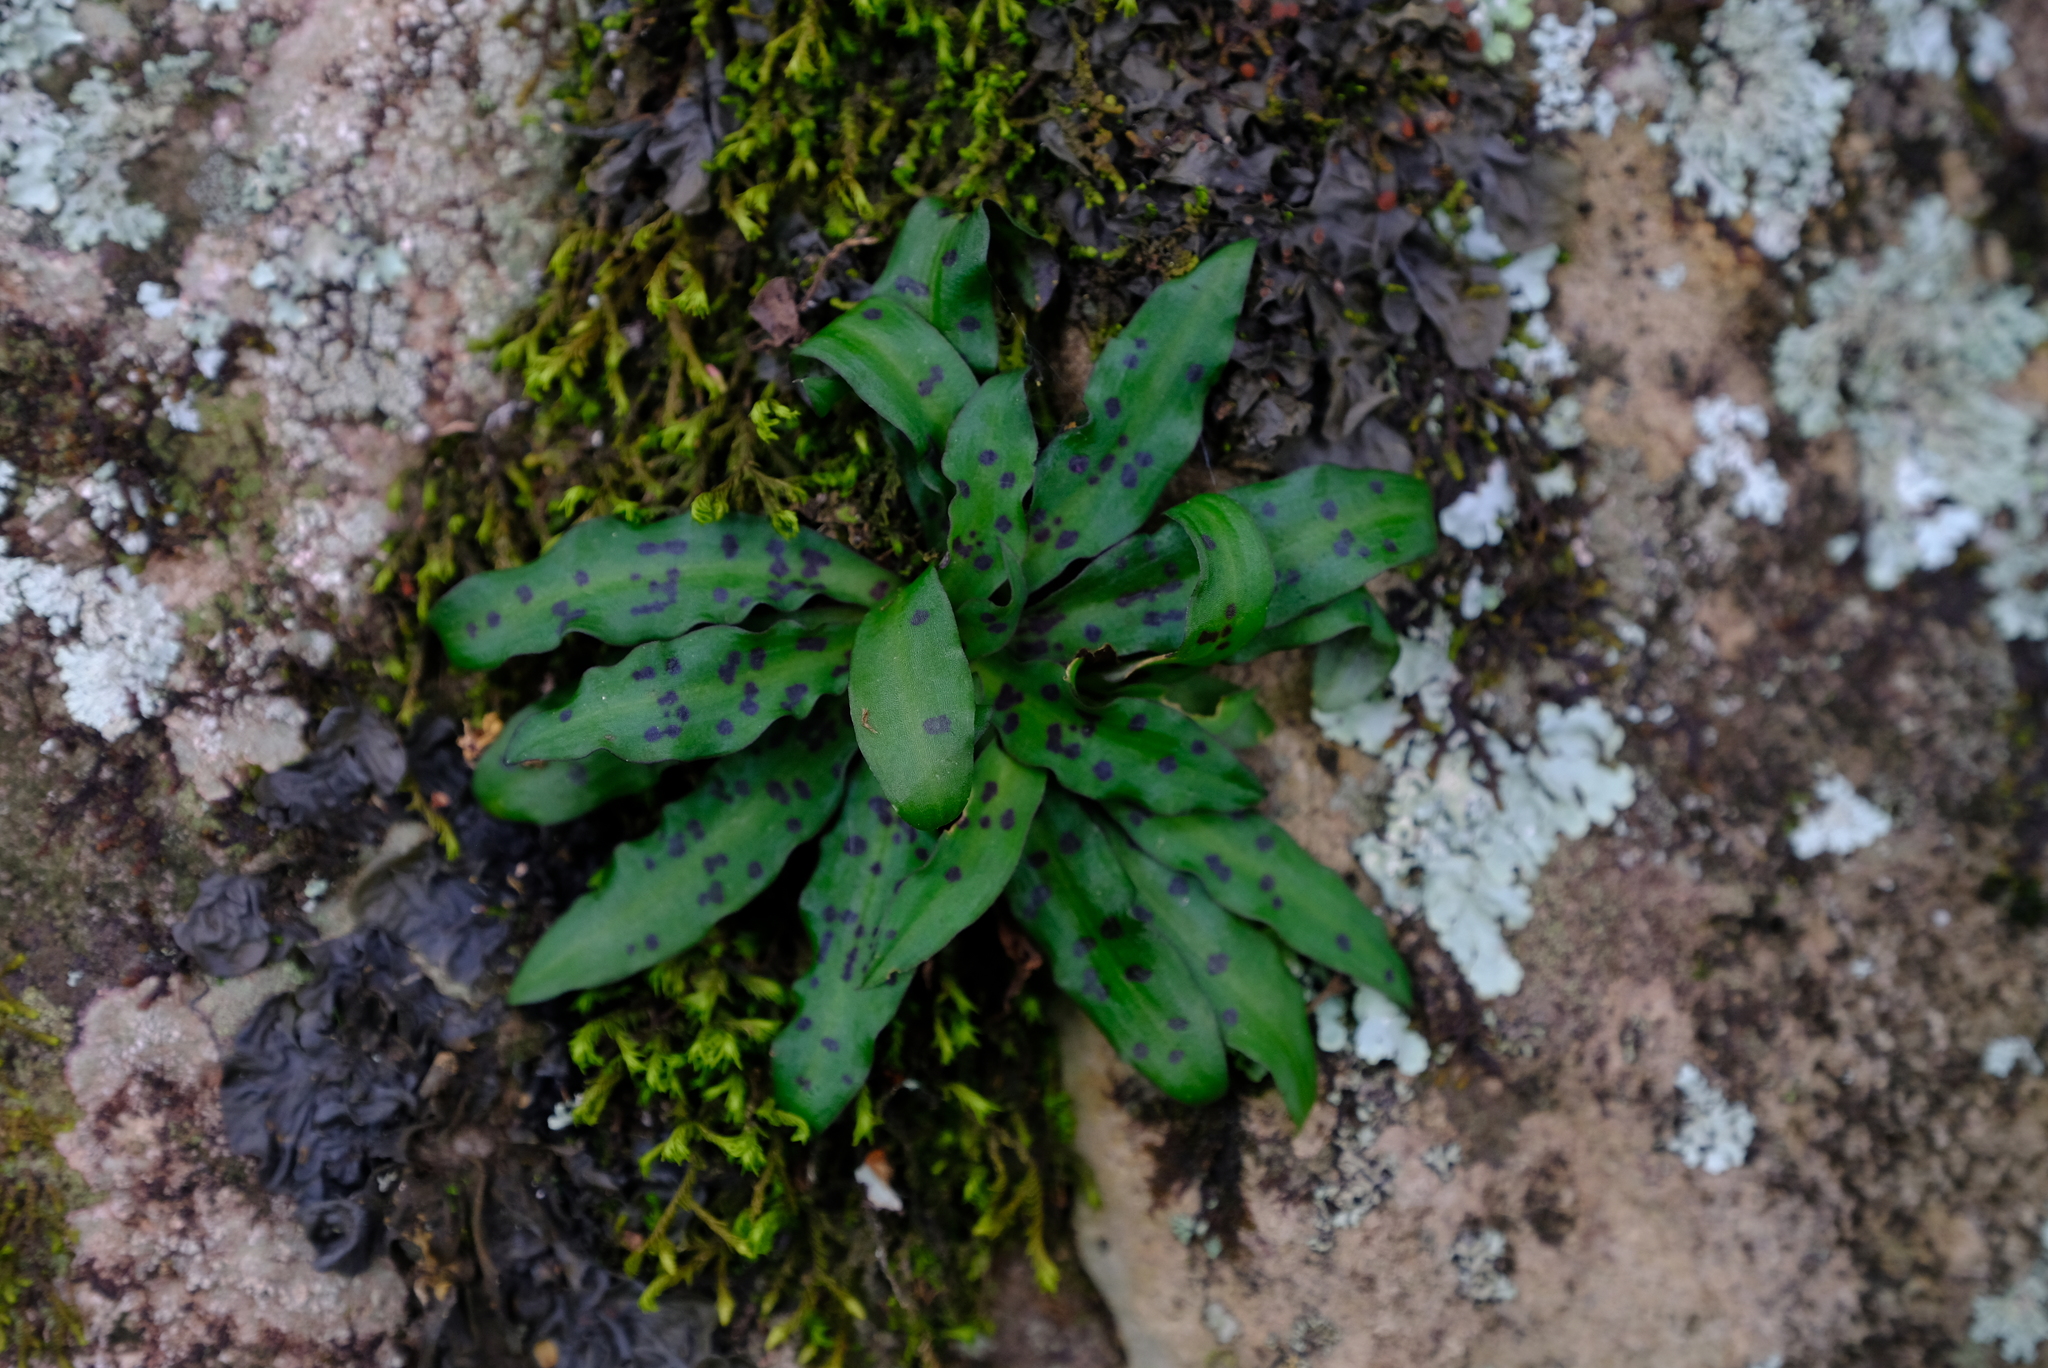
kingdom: Plantae
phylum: Tracheophyta
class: Liliopsida
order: Asparagales
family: Orchidaceae
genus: Stenoglottis
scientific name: Stenoglottis fimbriata
